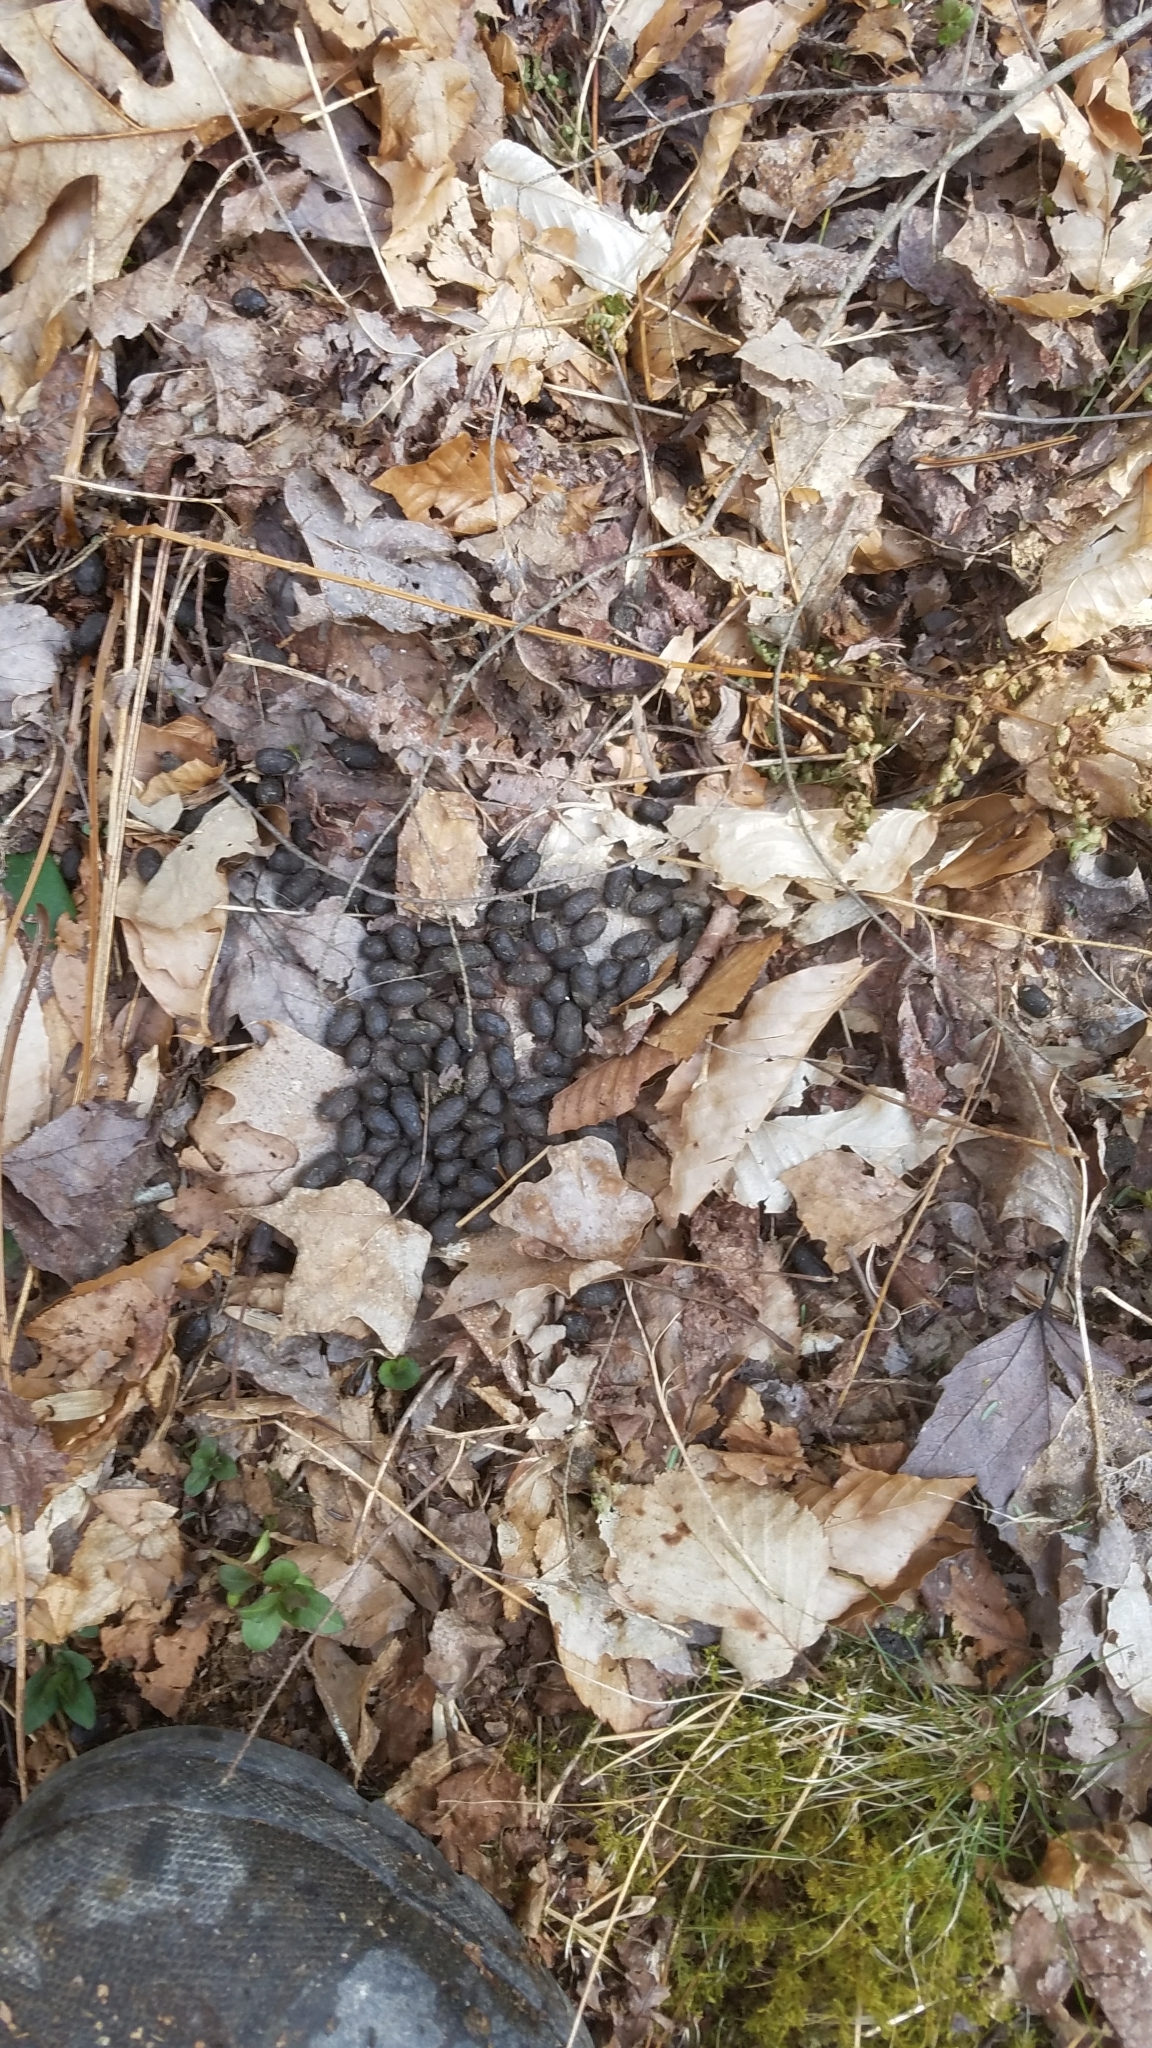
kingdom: Animalia
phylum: Chordata
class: Mammalia
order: Artiodactyla
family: Cervidae
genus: Odocoileus
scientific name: Odocoileus virginianus
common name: White-tailed deer
